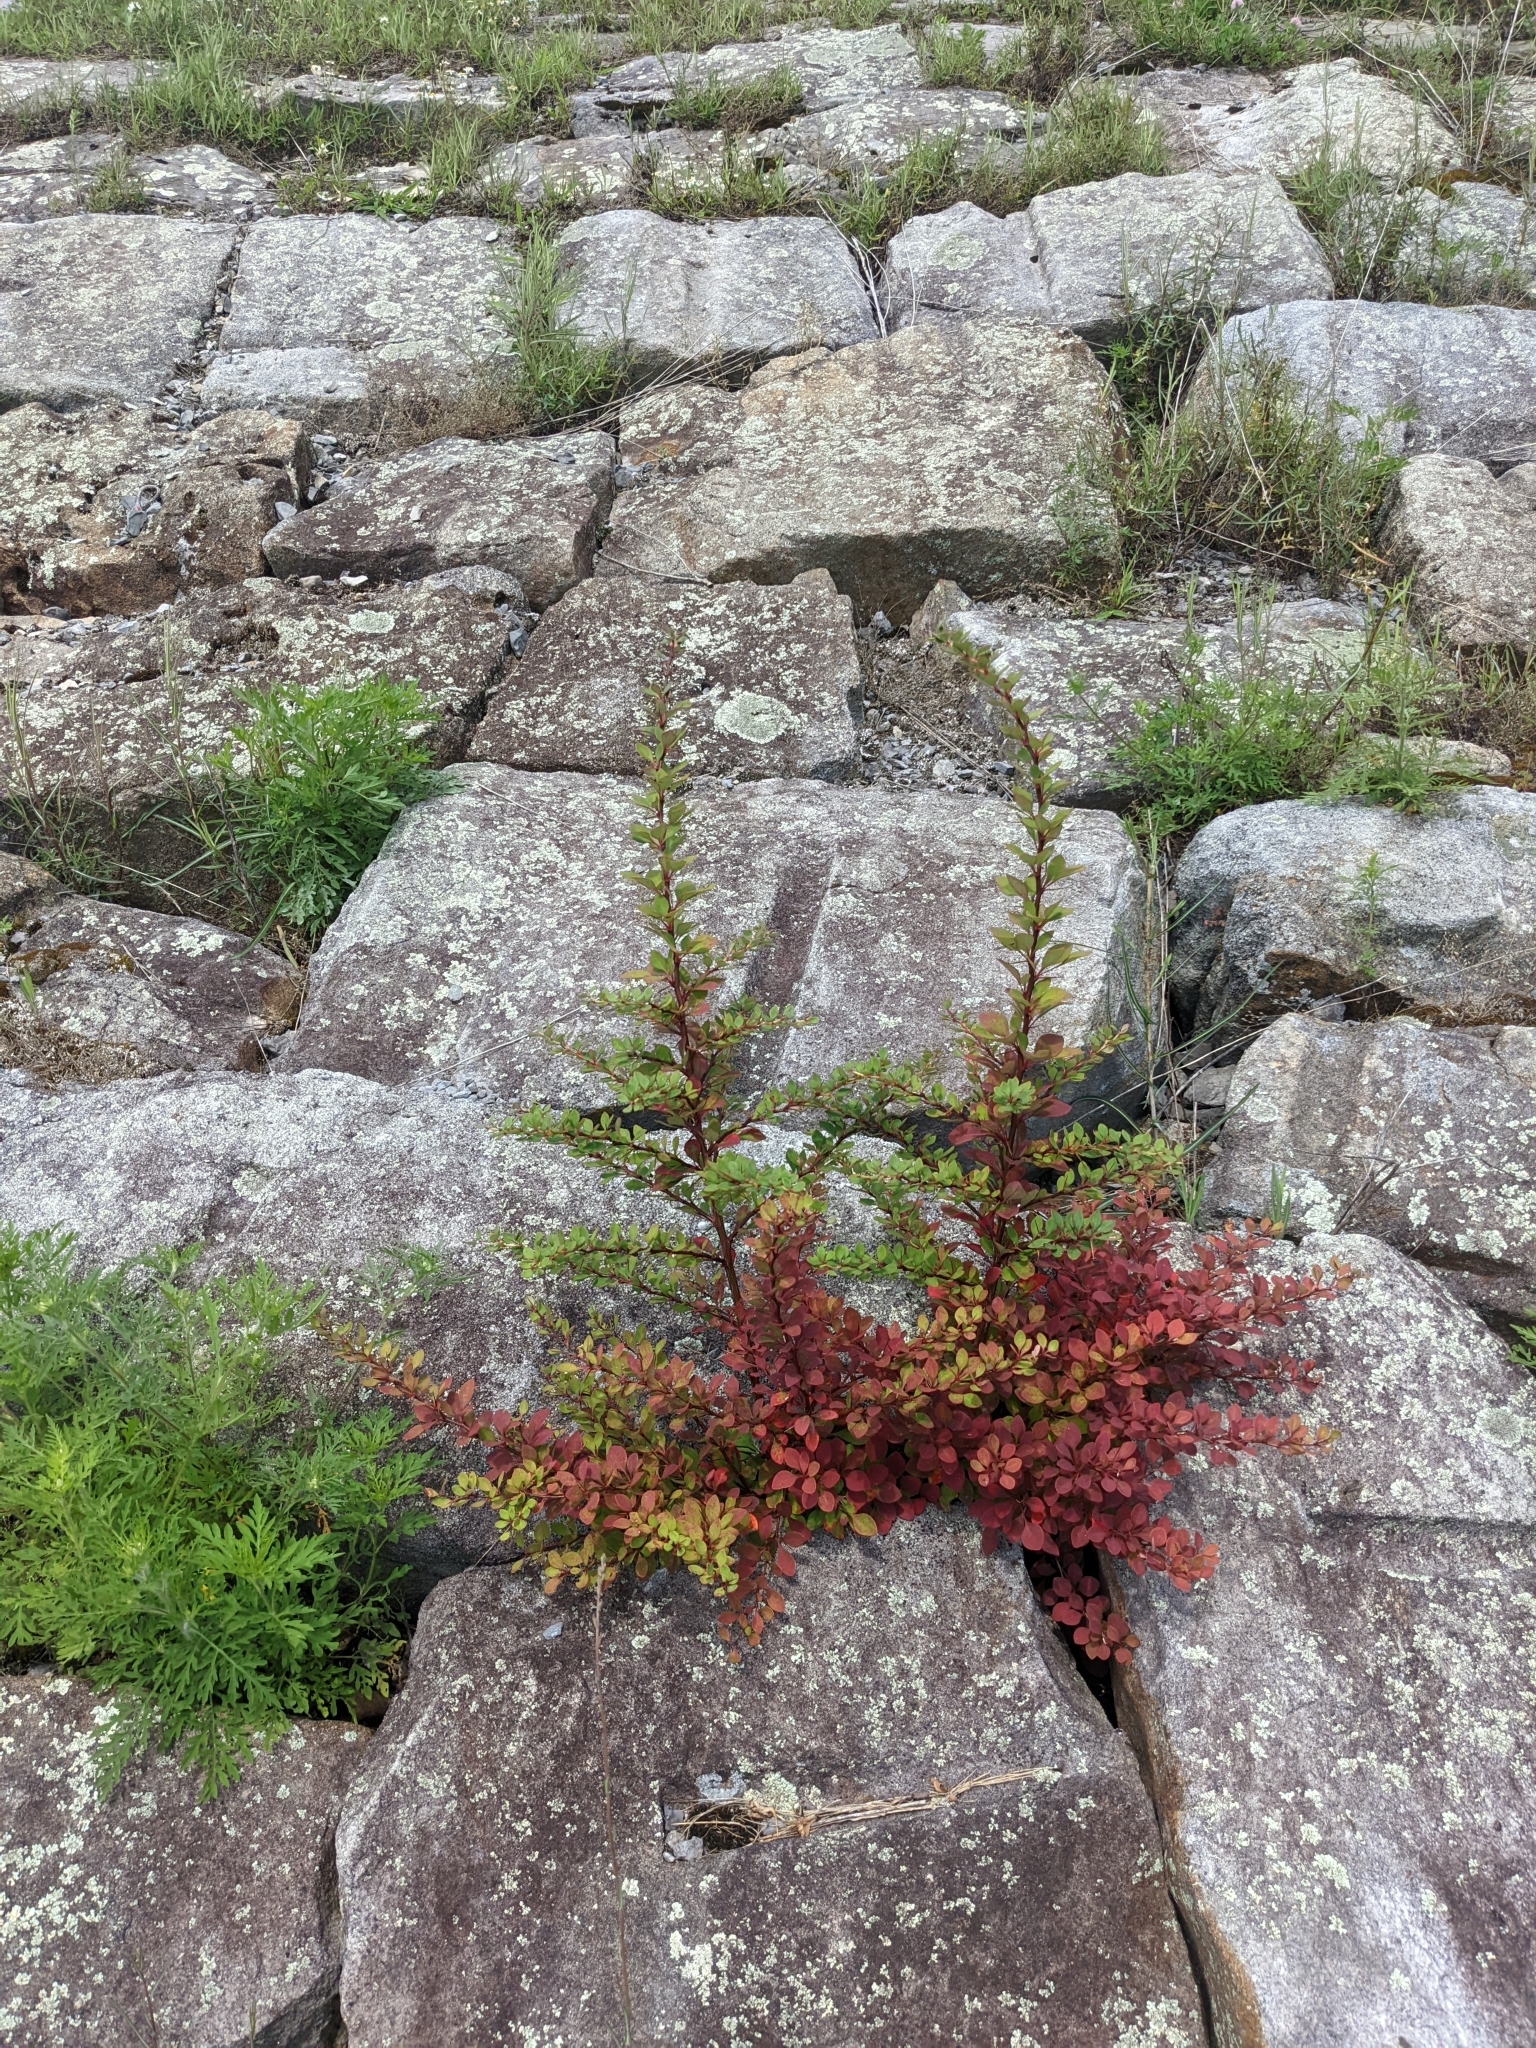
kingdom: Plantae
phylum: Tracheophyta
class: Magnoliopsida
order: Ranunculales
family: Berberidaceae
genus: Berberis
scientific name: Berberis thunbergii
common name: Japanese barberry
